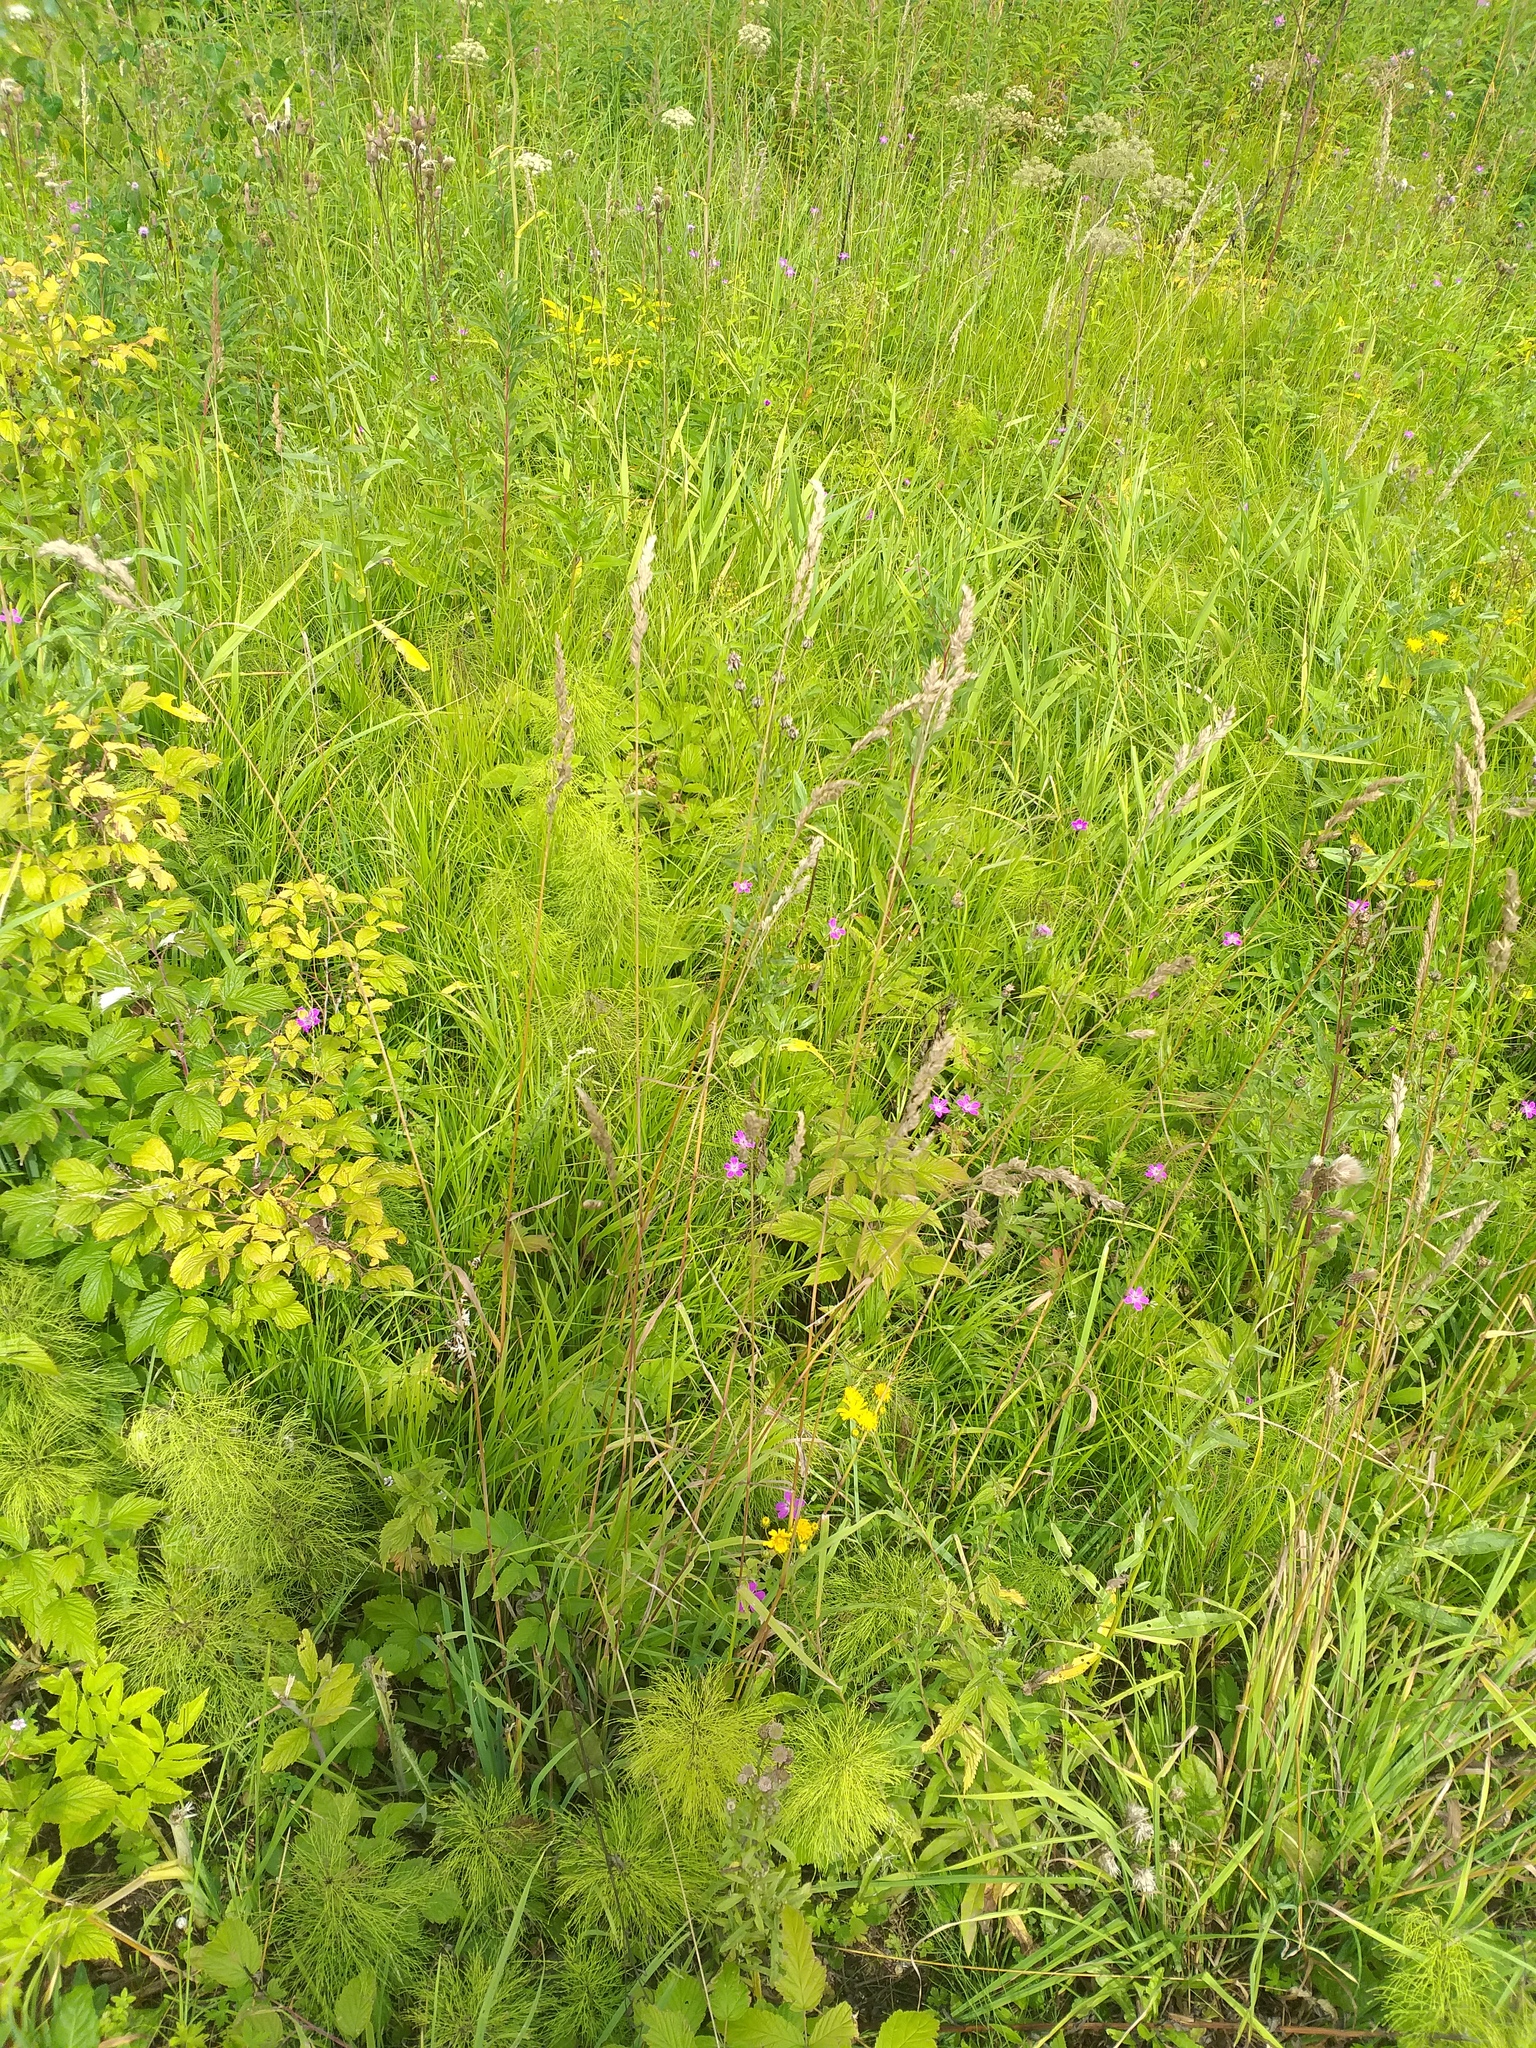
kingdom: Plantae
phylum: Tracheophyta
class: Liliopsida
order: Poales
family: Poaceae
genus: Dactylis
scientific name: Dactylis glomerata
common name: Orchardgrass
